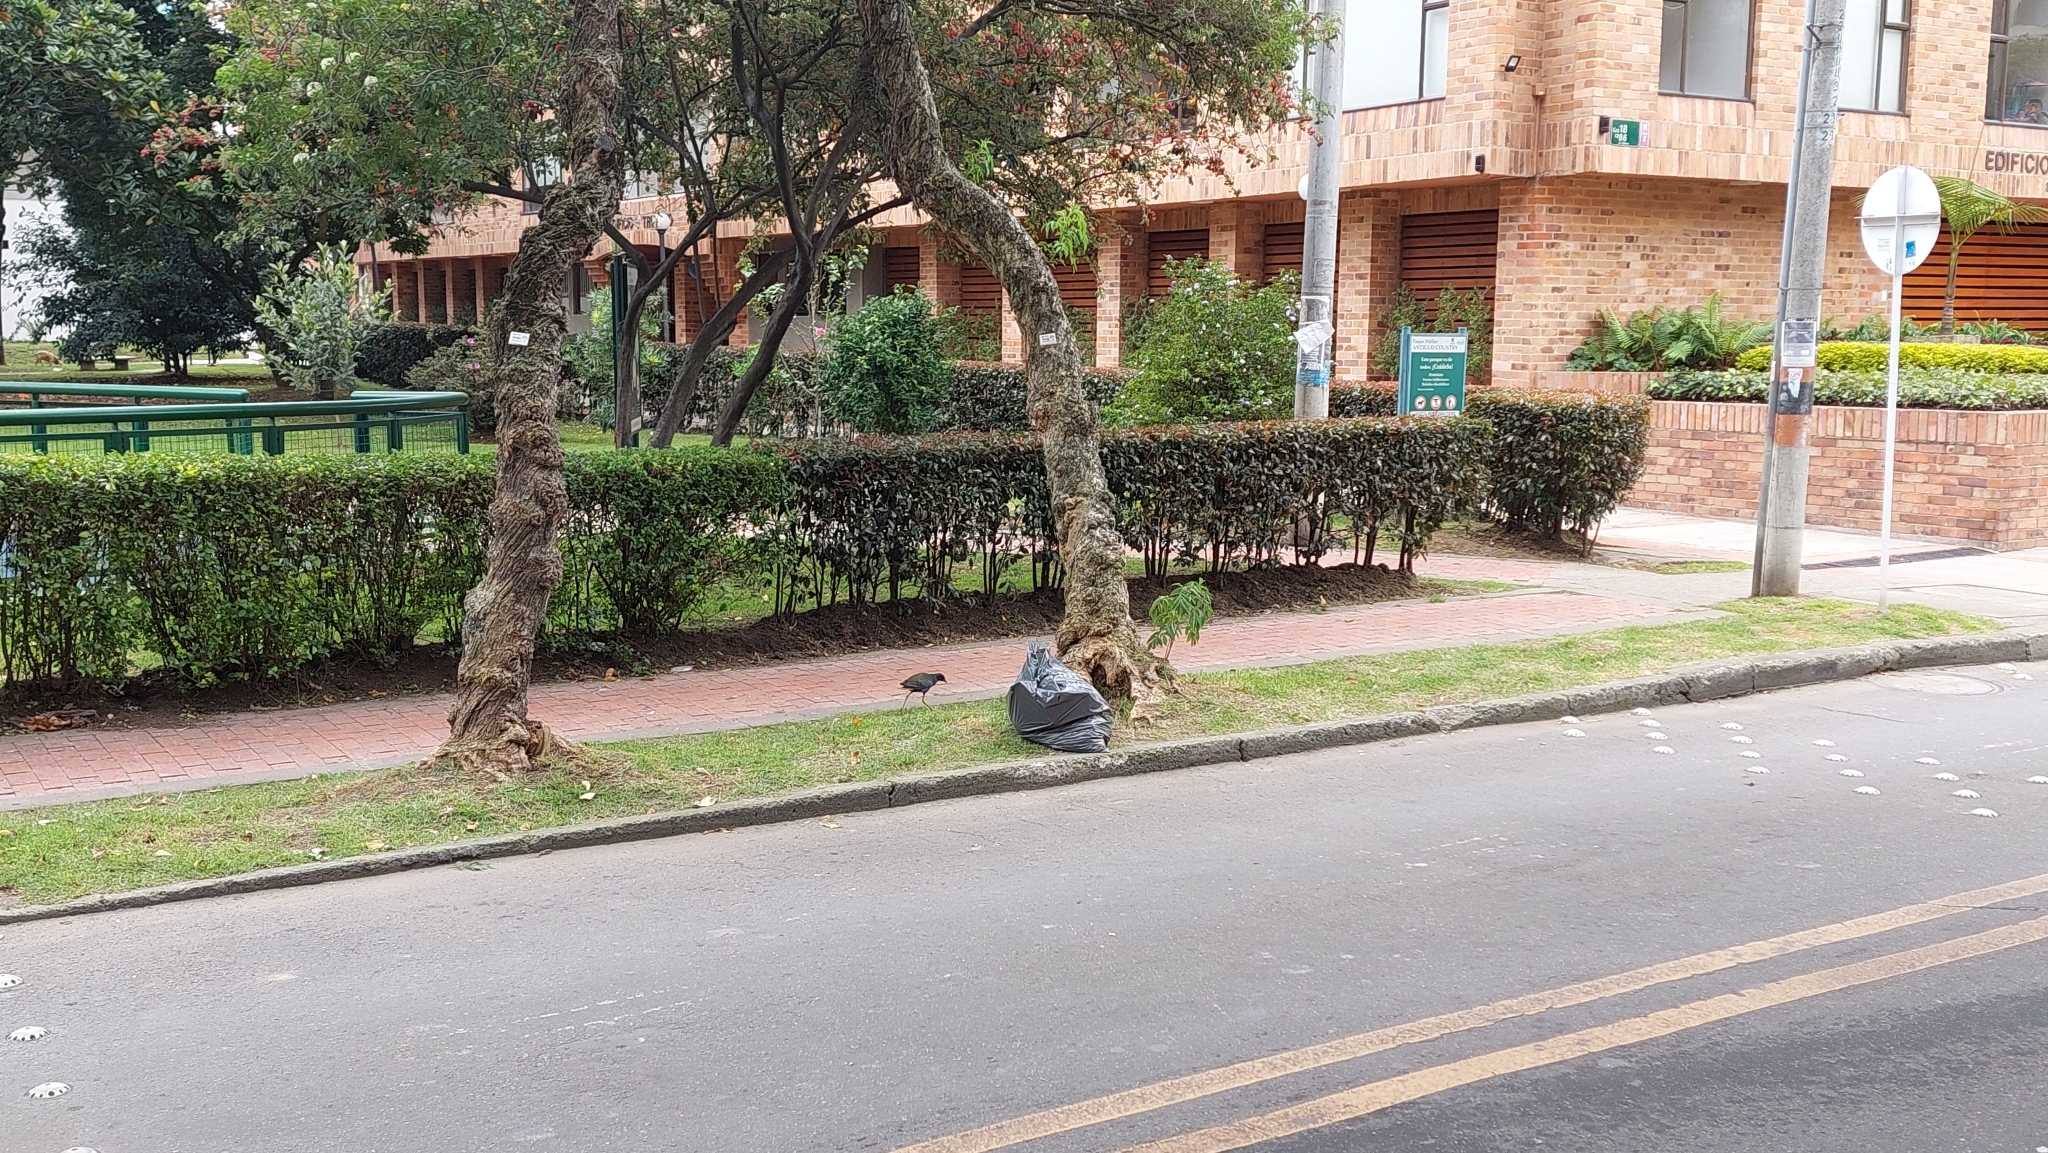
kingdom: Animalia
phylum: Chordata
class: Aves
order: Gruiformes
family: Rallidae
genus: Porphyrio
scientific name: Porphyrio martinica
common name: Purple gallinule
